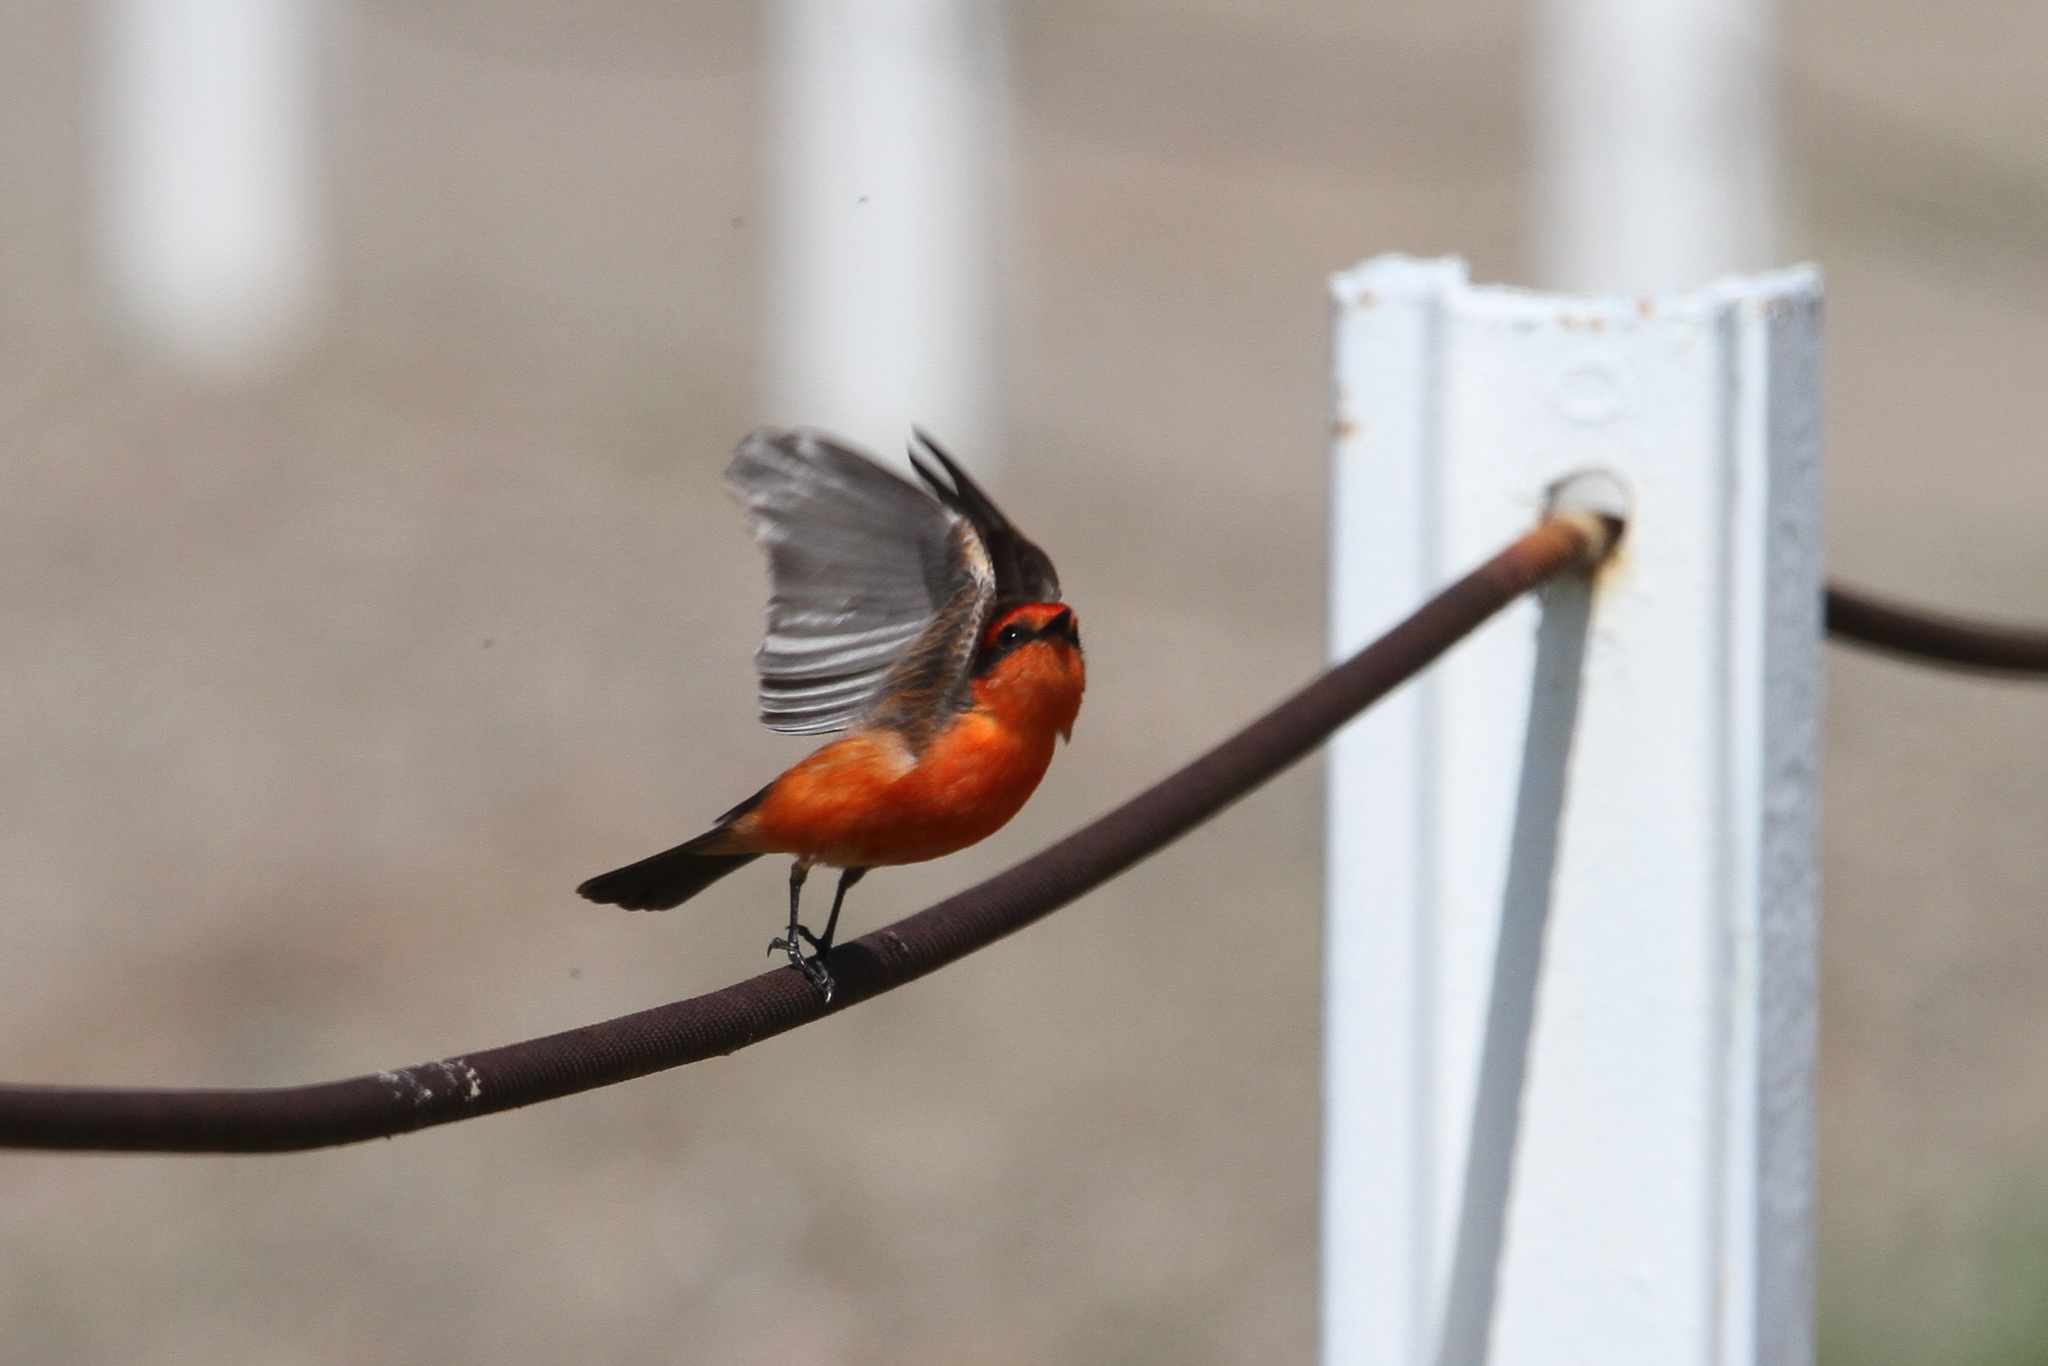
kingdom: Animalia
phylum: Chordata
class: Aves
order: Passeriformes
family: Tyrannidae
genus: Pyrocephalus
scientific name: Pyrocephalus rubinus
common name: Vermilion flycatcher
